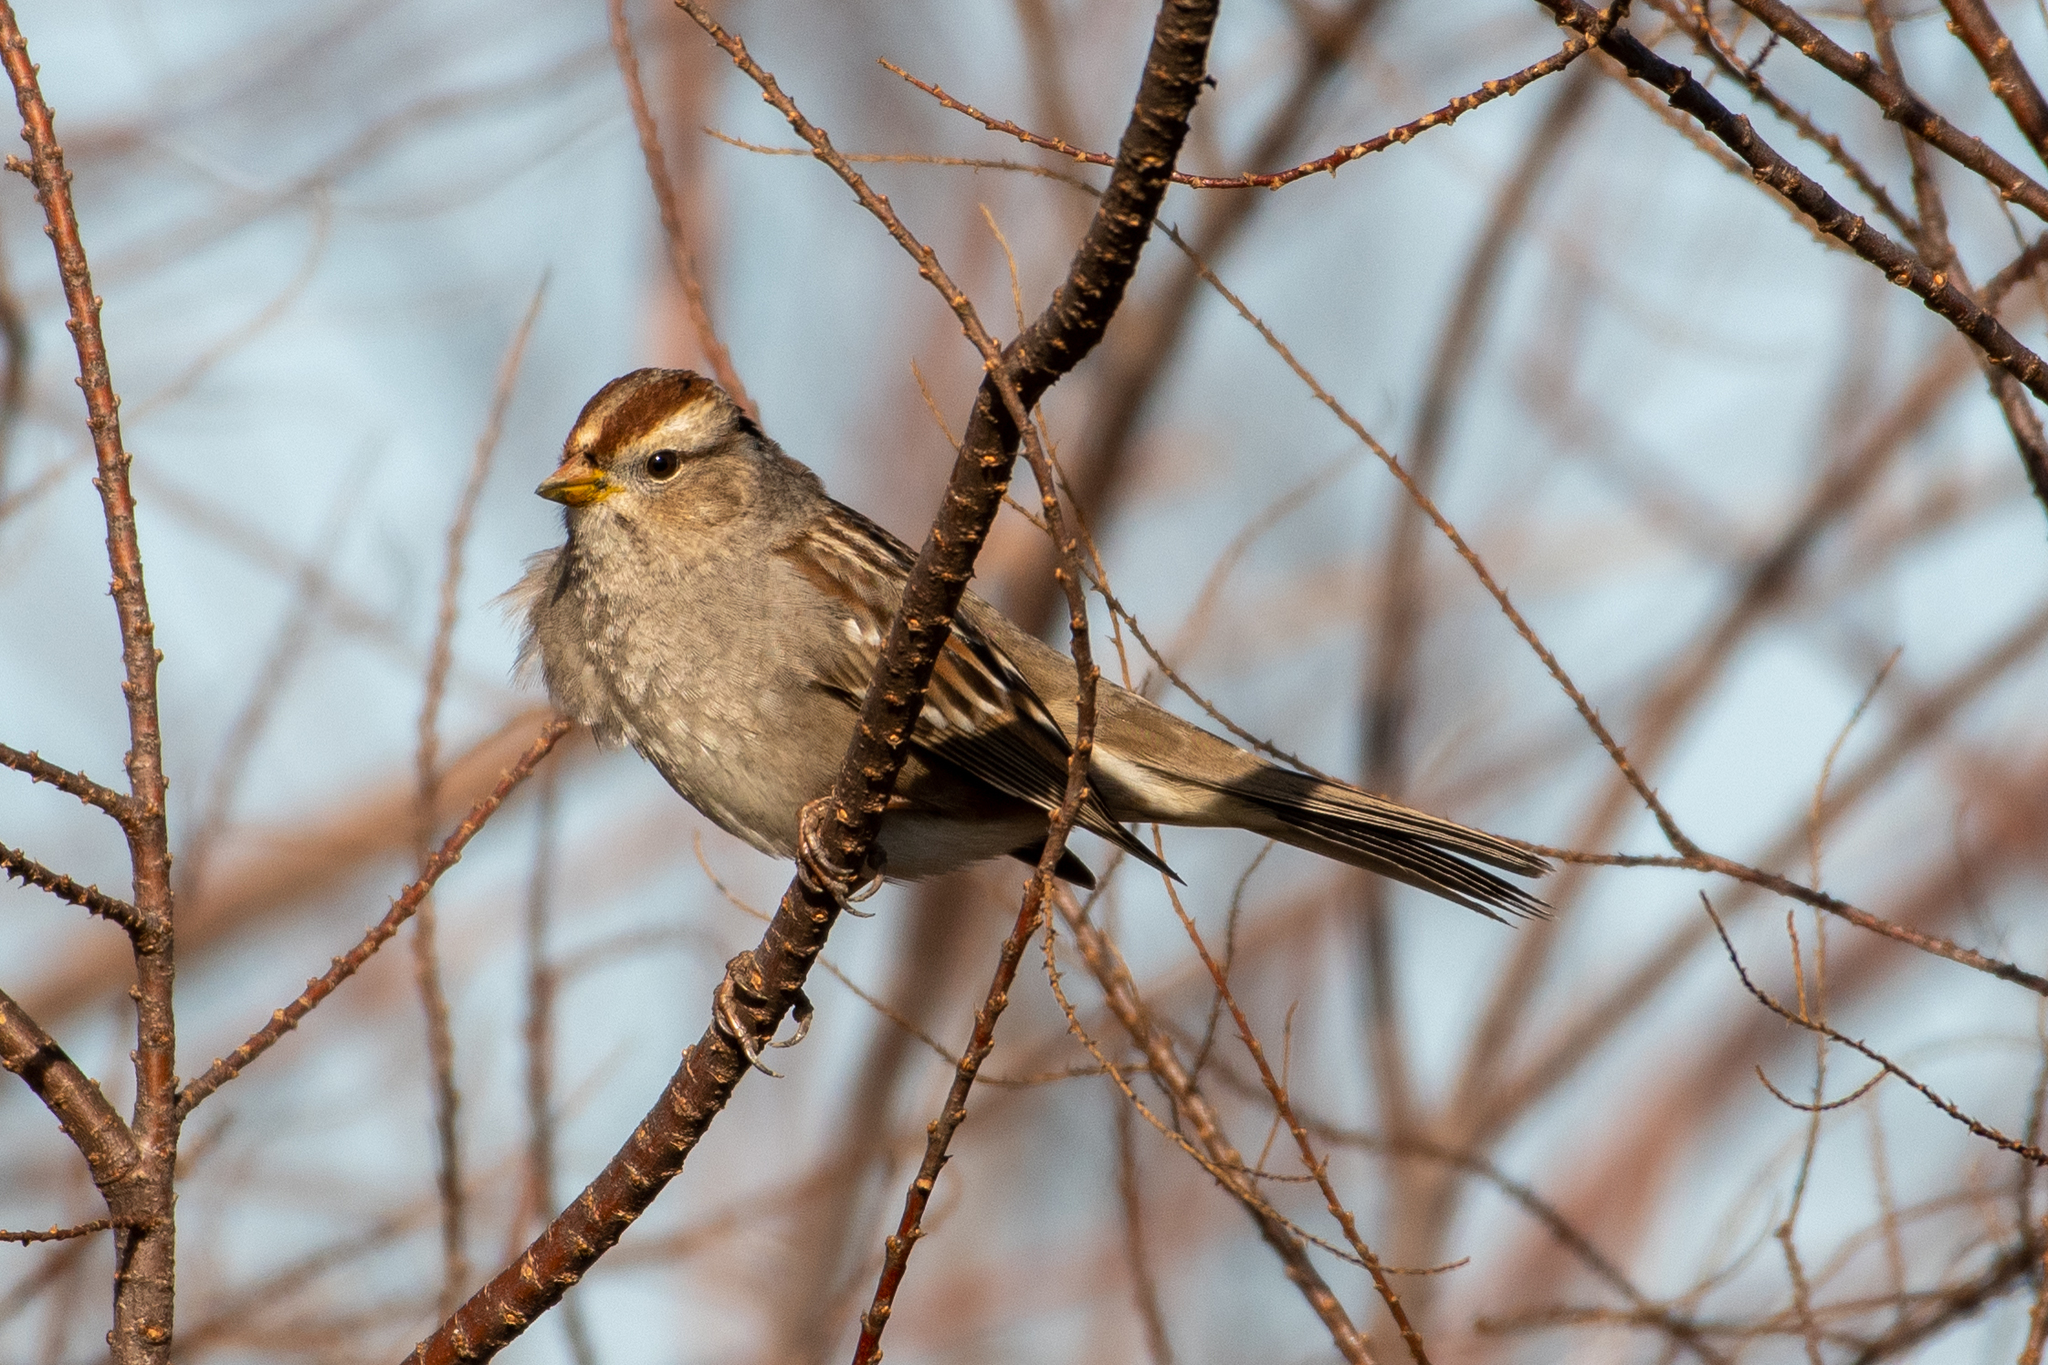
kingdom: Animalia
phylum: Chordata
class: Aves
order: Passeriformes
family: Passerellidae
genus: Zonotrichia
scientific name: Zonotrichia leucophrys
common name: White-crowned sparrow
